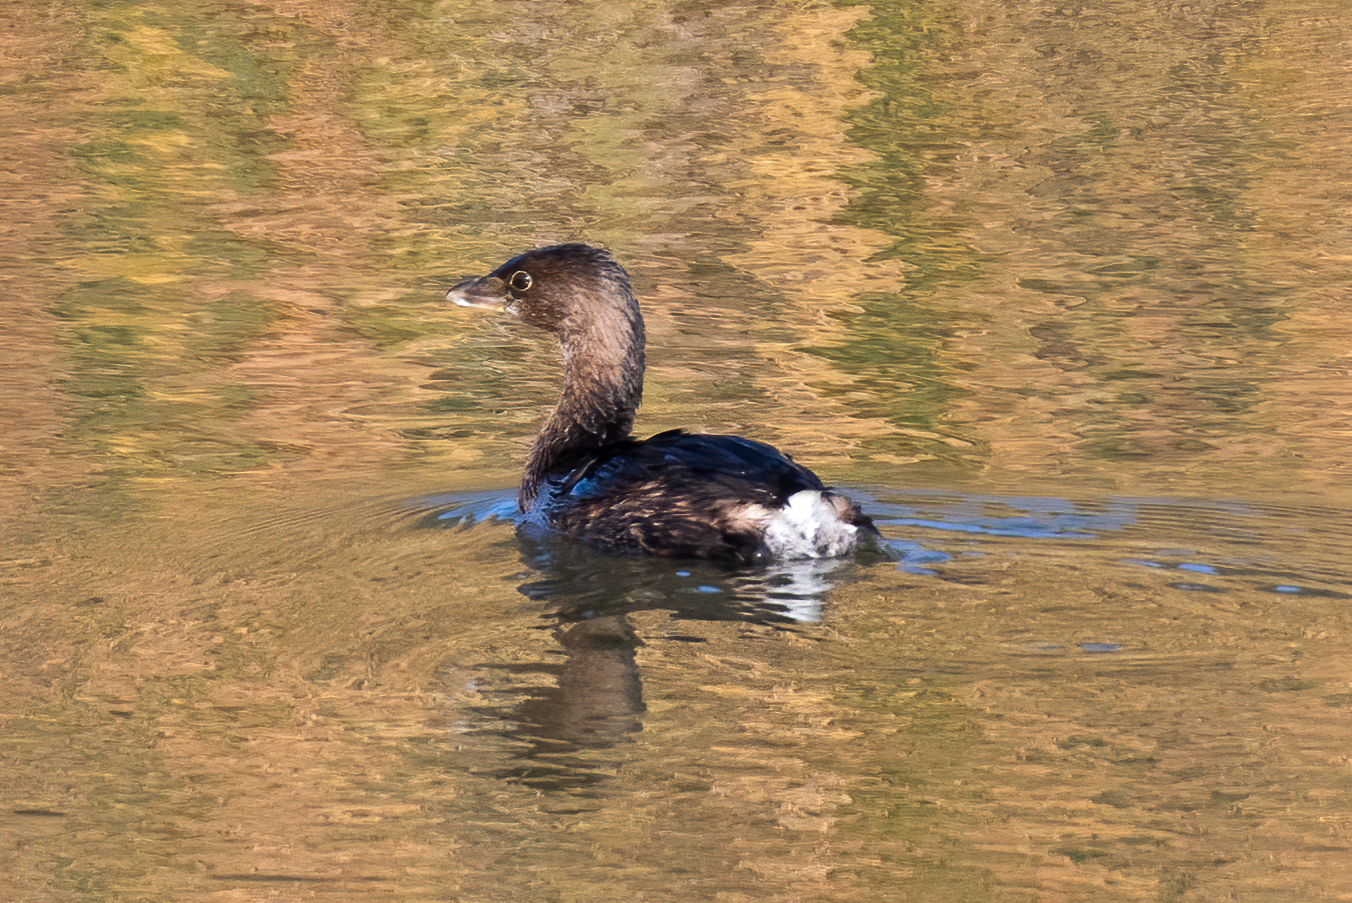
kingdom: Animalia
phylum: Chordata
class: Aves
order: Podicipediformes
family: Podicipedidae
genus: Podilymbus
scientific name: Podilymbus podiceps
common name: Pied-billed grebe
